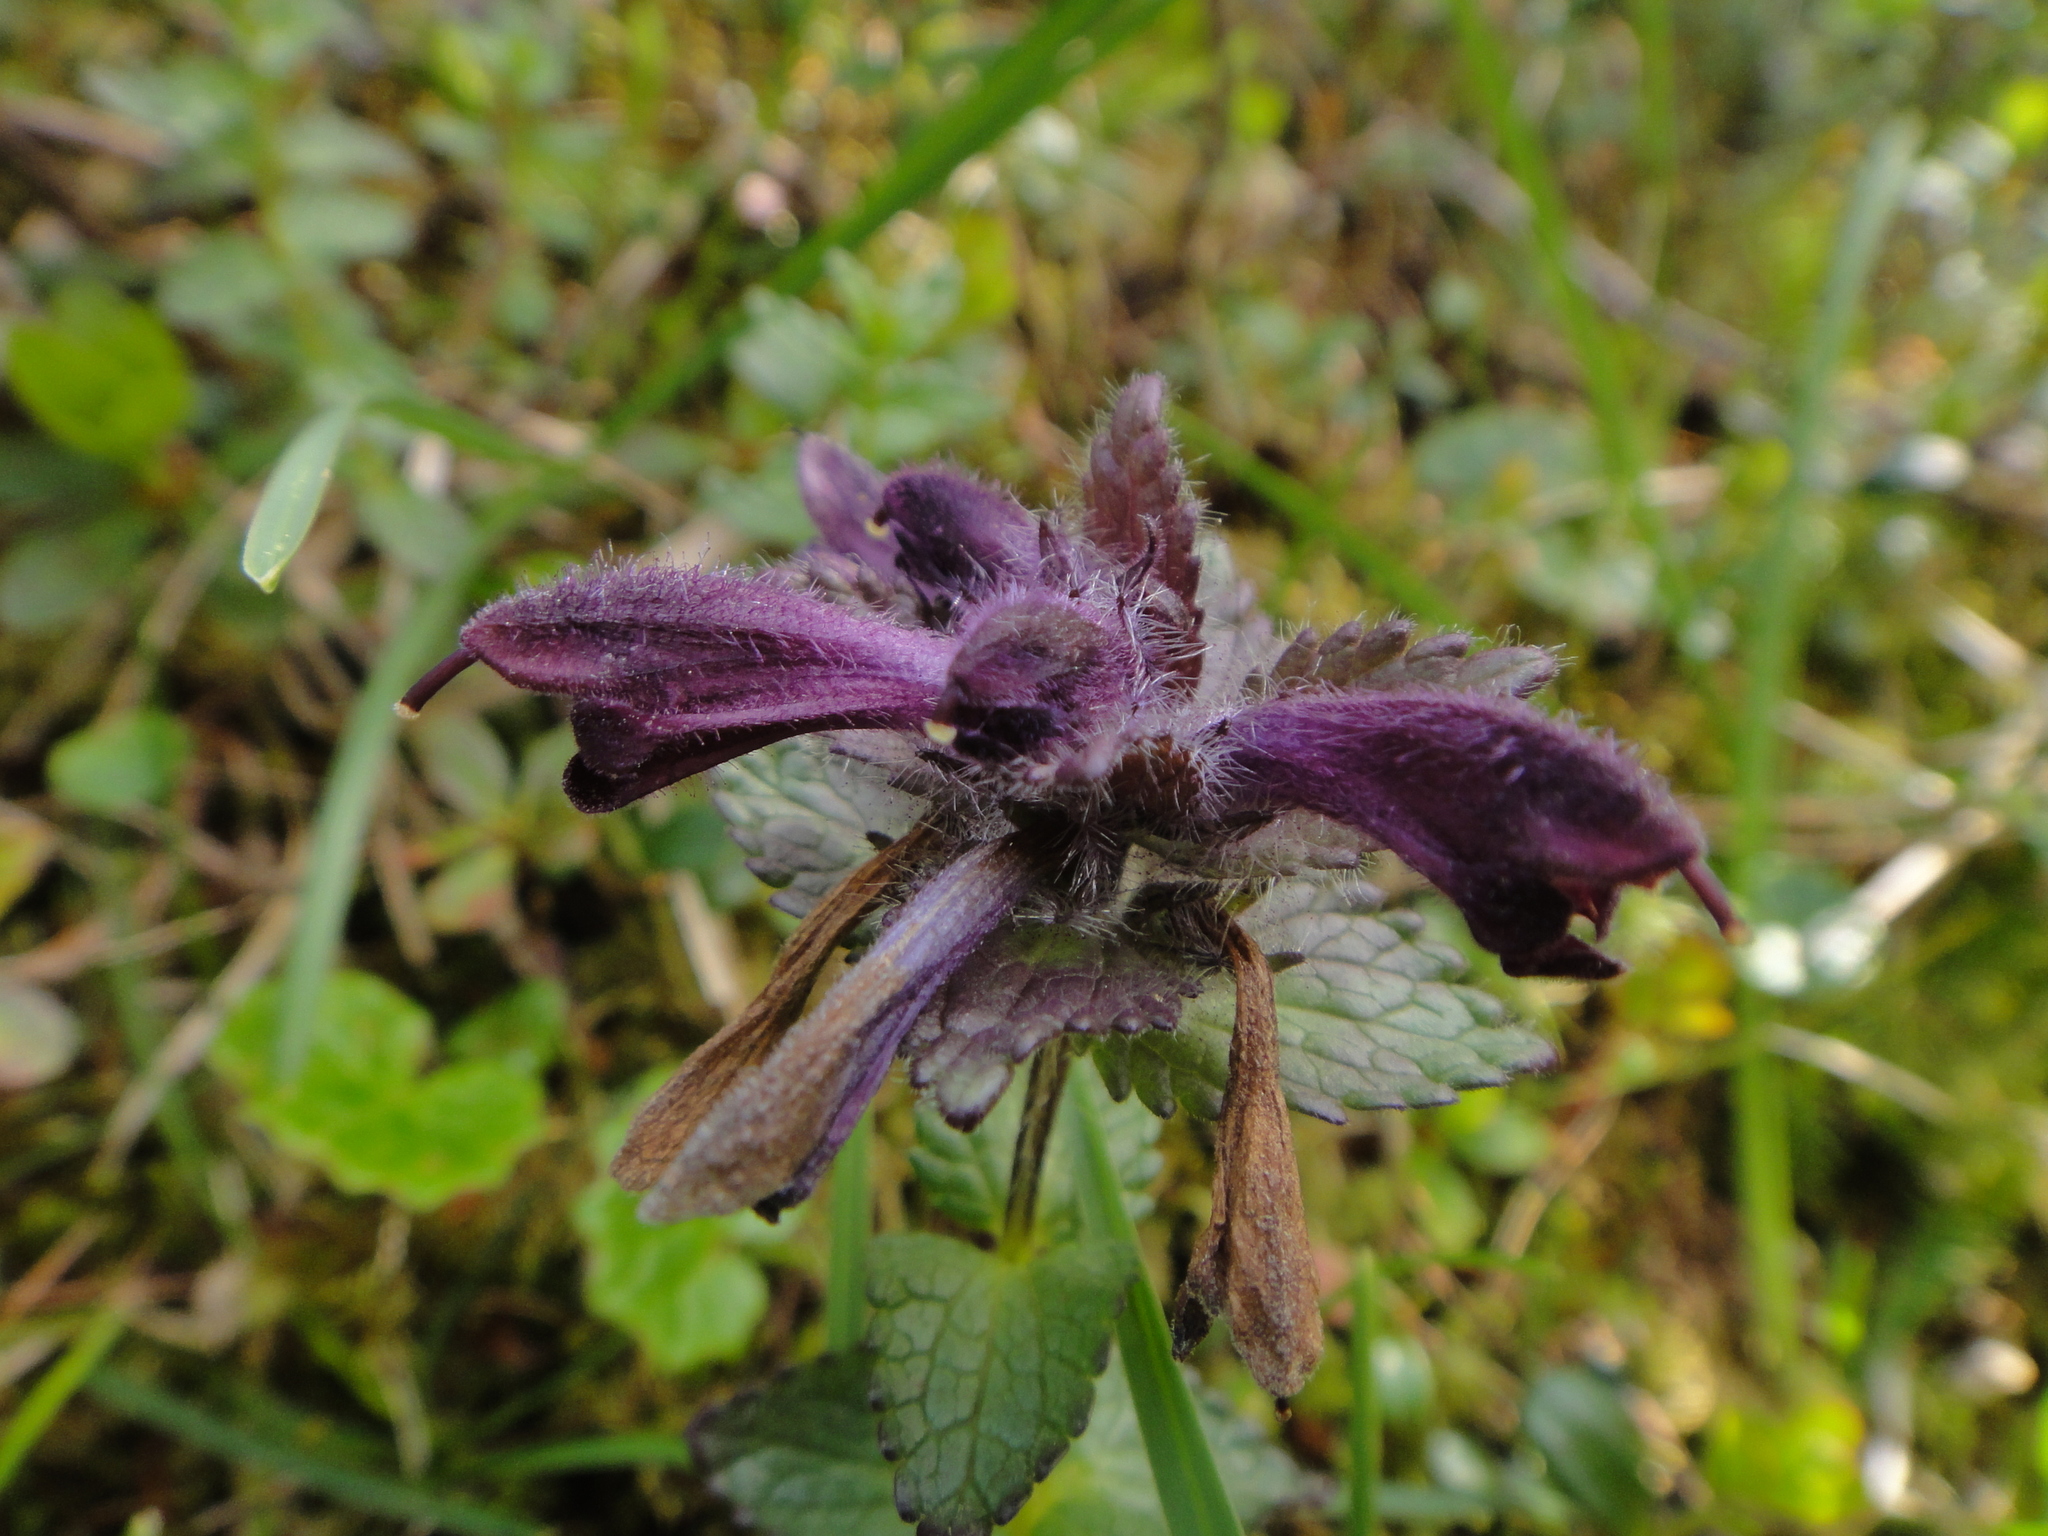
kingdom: Plantae
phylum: Tracheophyta
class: Magnoliopsida
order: Lamiales
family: Orobanchaceae
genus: Bartsia
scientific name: Bartsia alpina
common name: Alpine bartsia
